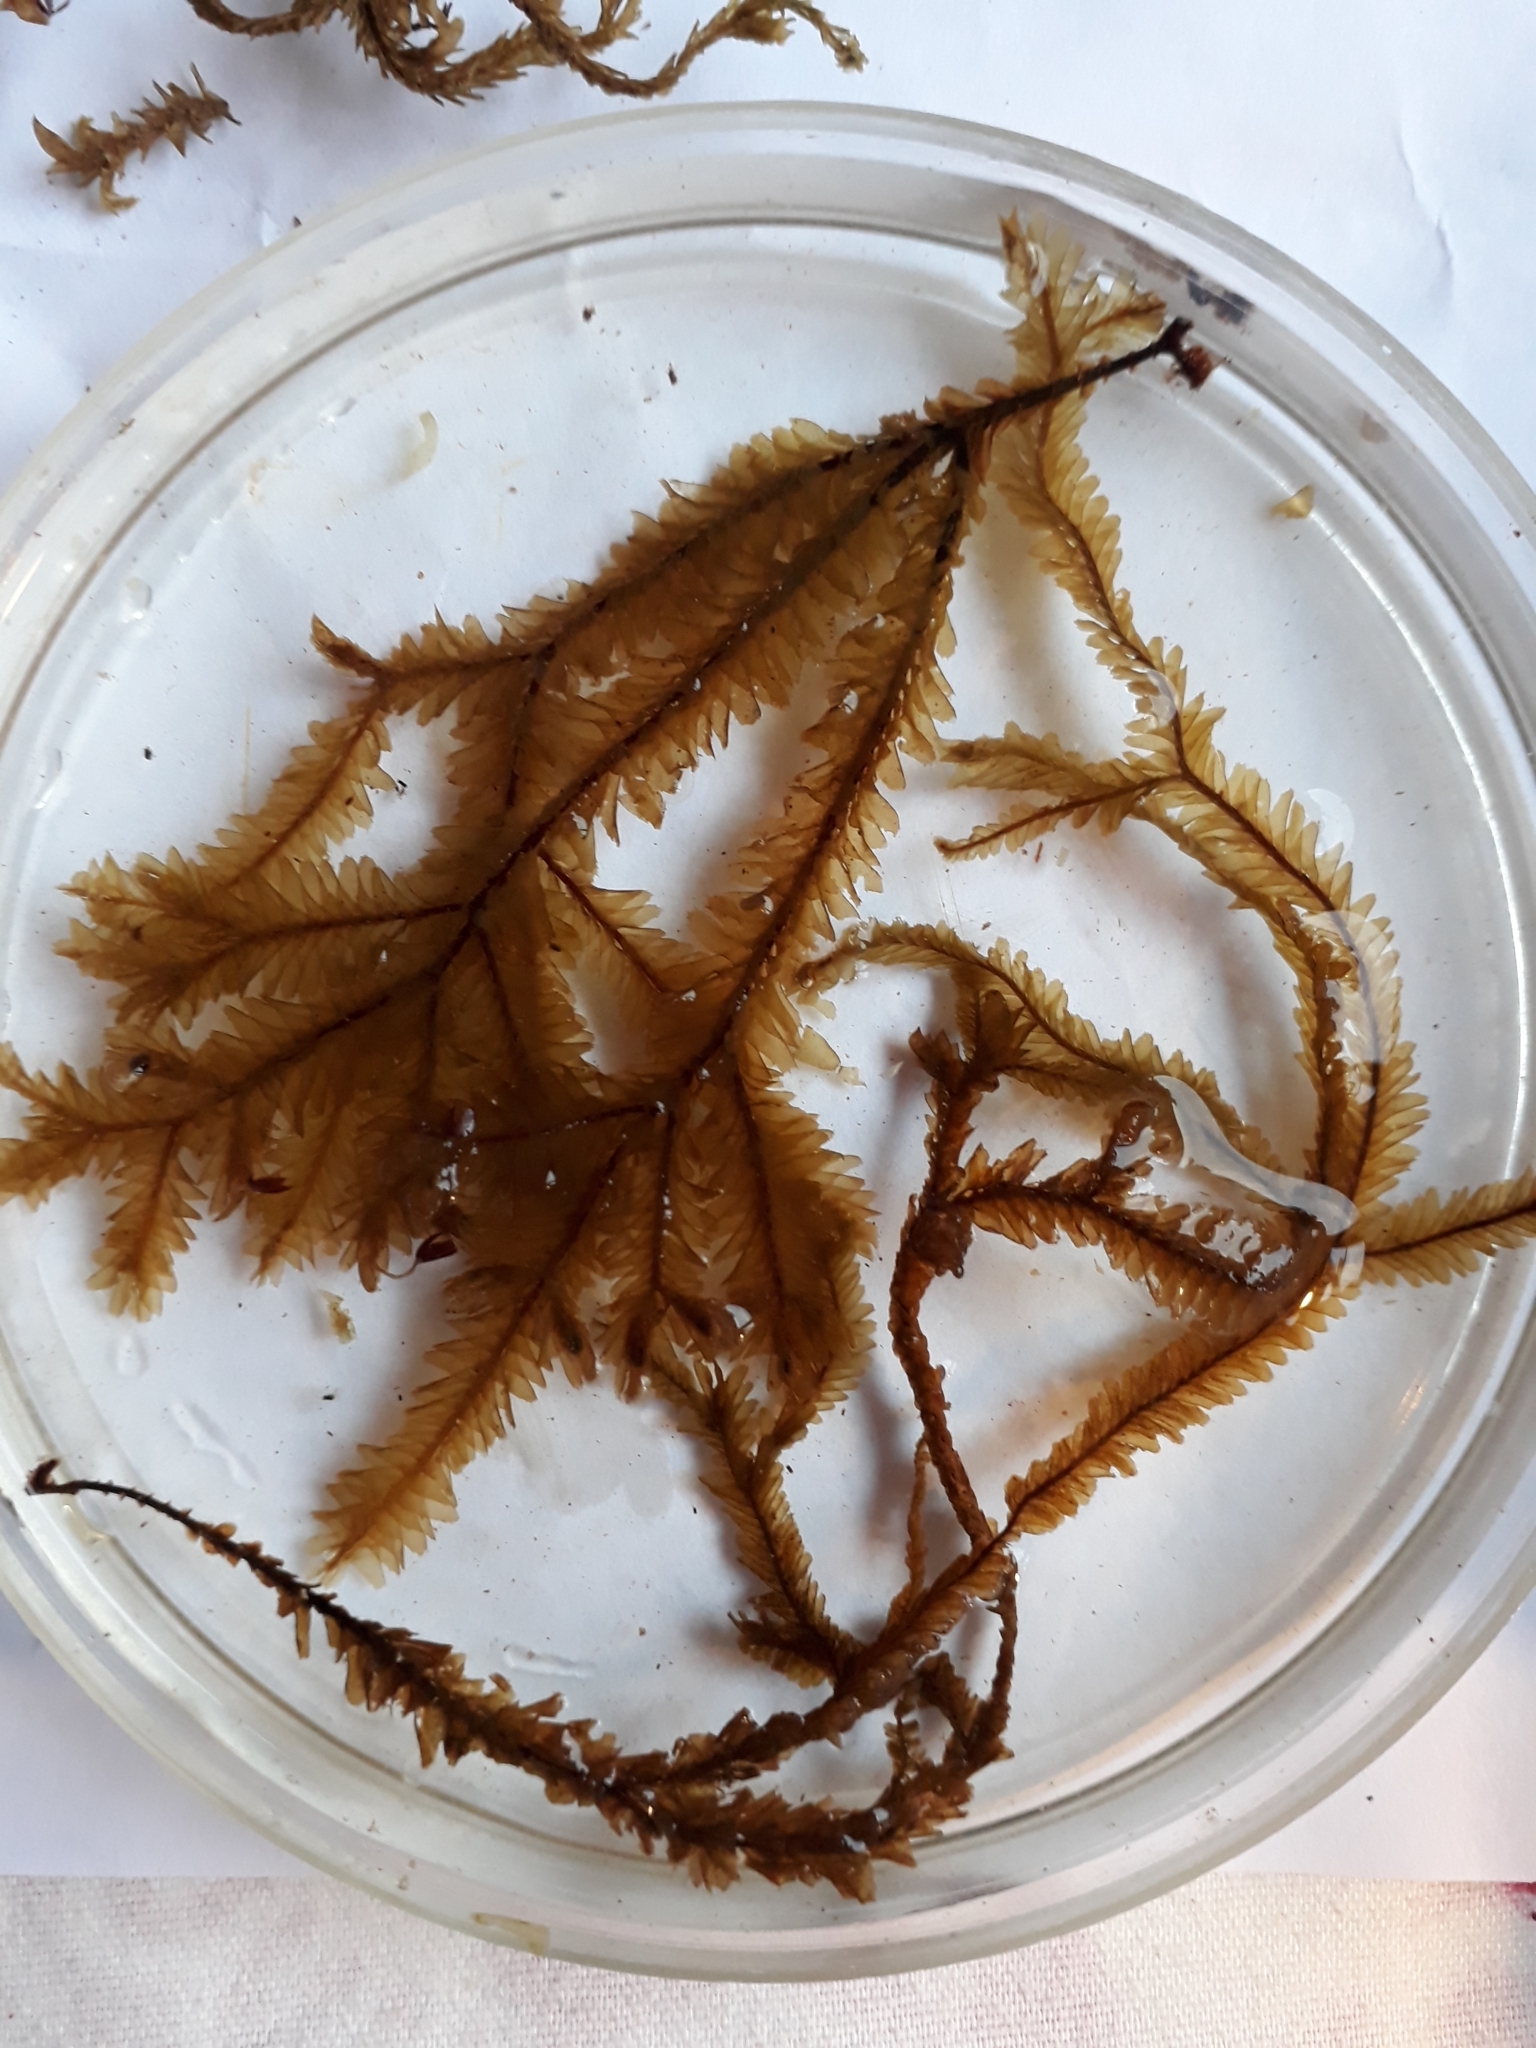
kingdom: Plantae
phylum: Marchantiophyta
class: Jungermanniopsida
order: Jungermanniales
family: Plagiochilaceae
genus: Plagiochila
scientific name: Plagiochila trispicata
